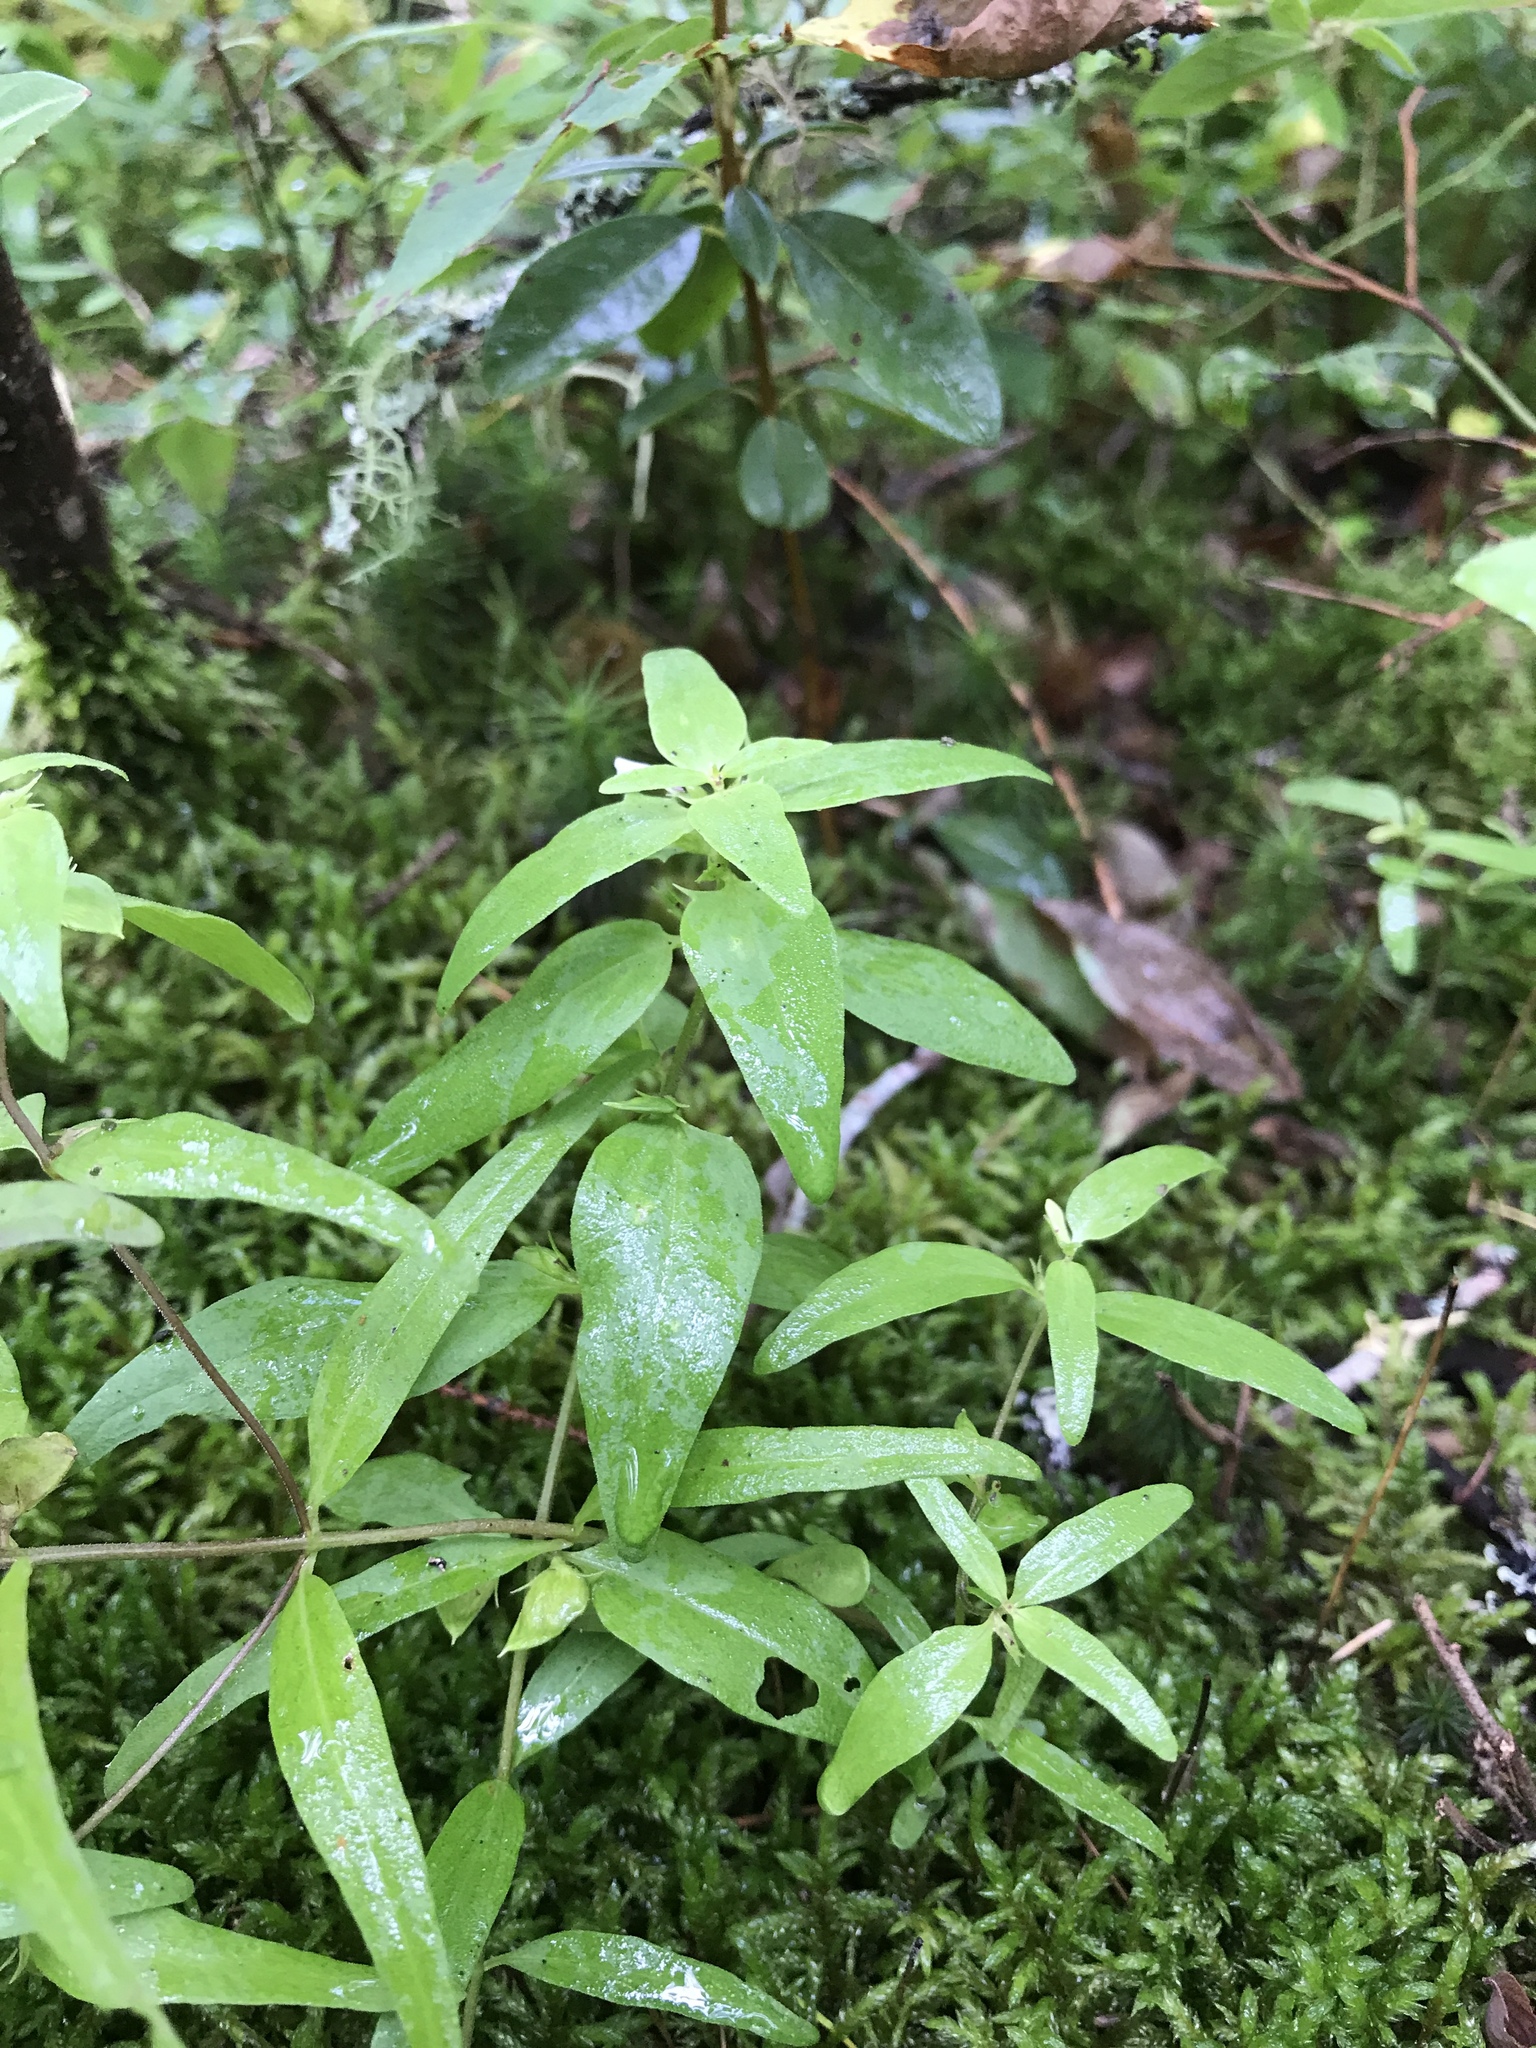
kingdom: Plantae
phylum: Tracheophyta
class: Magnoliopsida
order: Lamiales
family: Orobanchaceae
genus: Melampyrum
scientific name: Melampyrum lineare
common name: American cow-wheat
